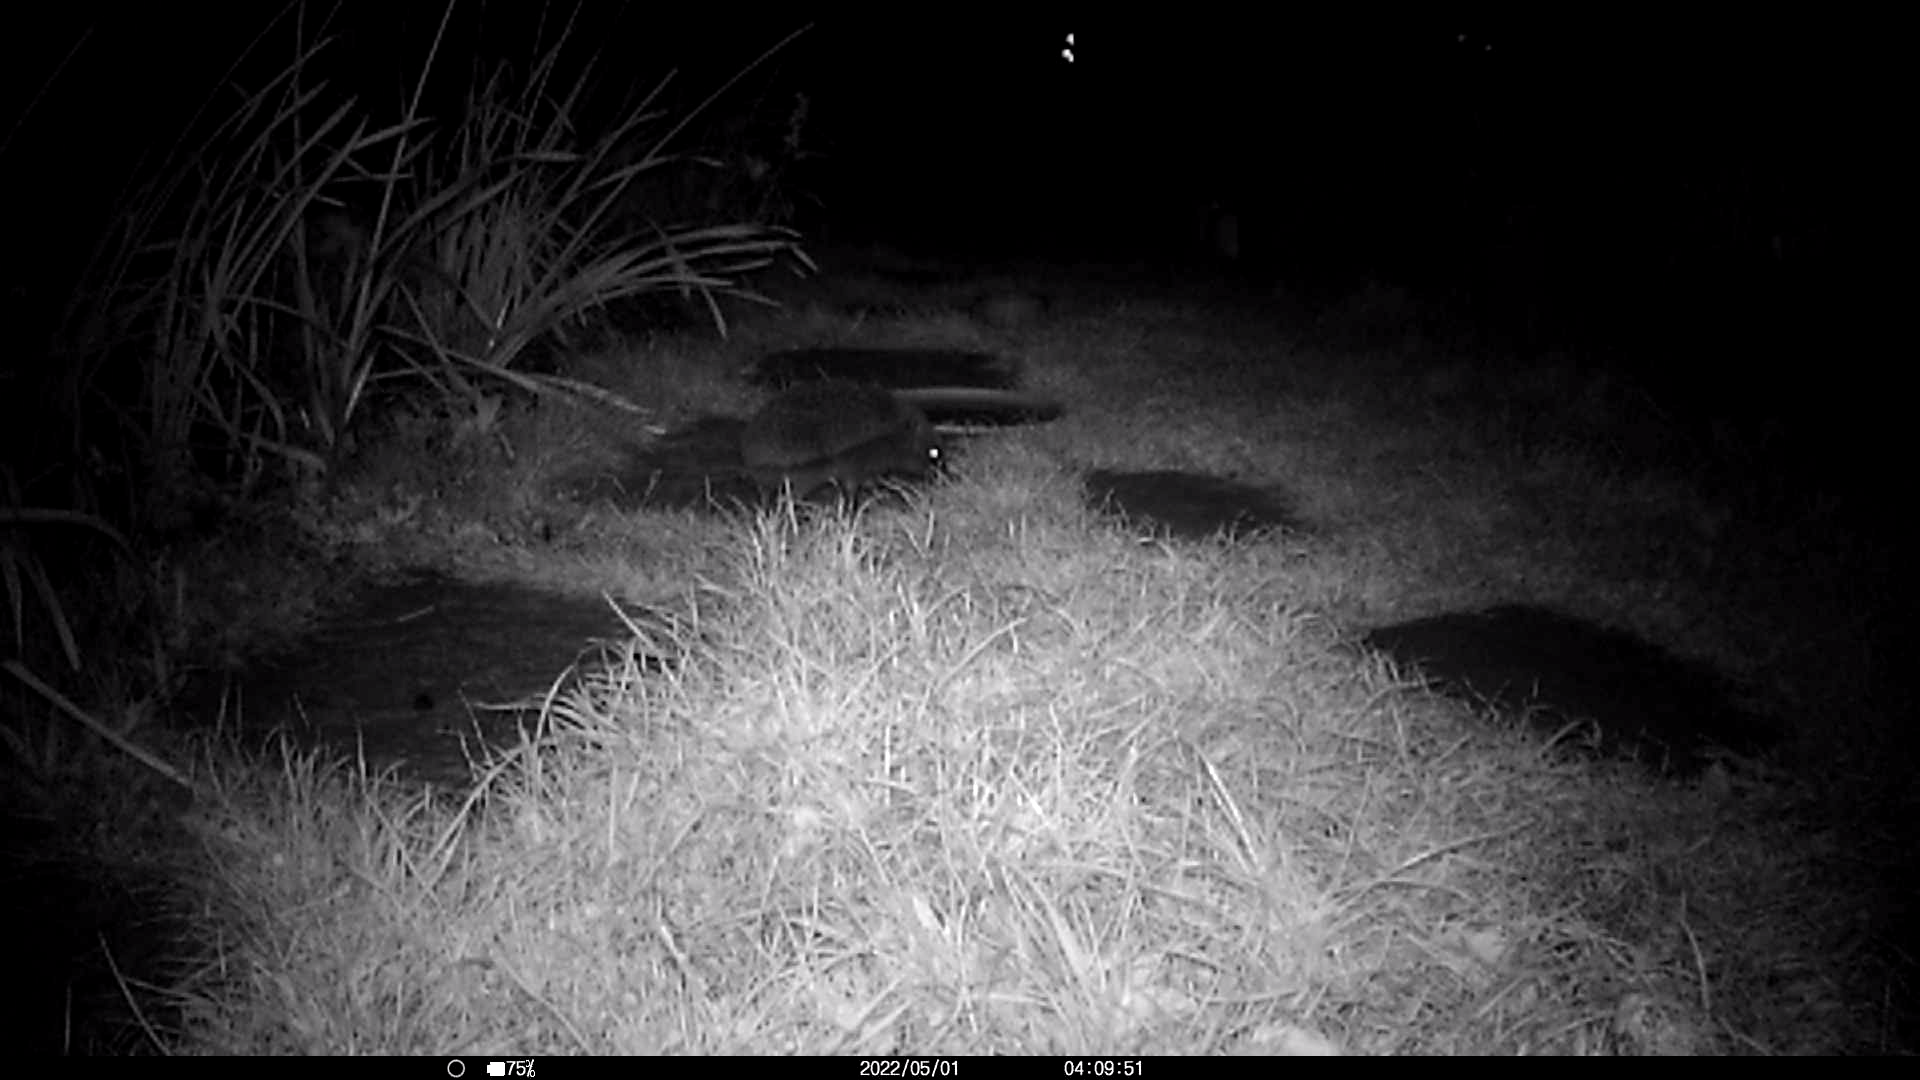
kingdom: Animalia
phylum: Chordata
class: Mammalia
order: Erinaceomorpha
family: Erinaceidae
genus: Erinaceus
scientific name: Erinaceus europaeus
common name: West european hedgehog
